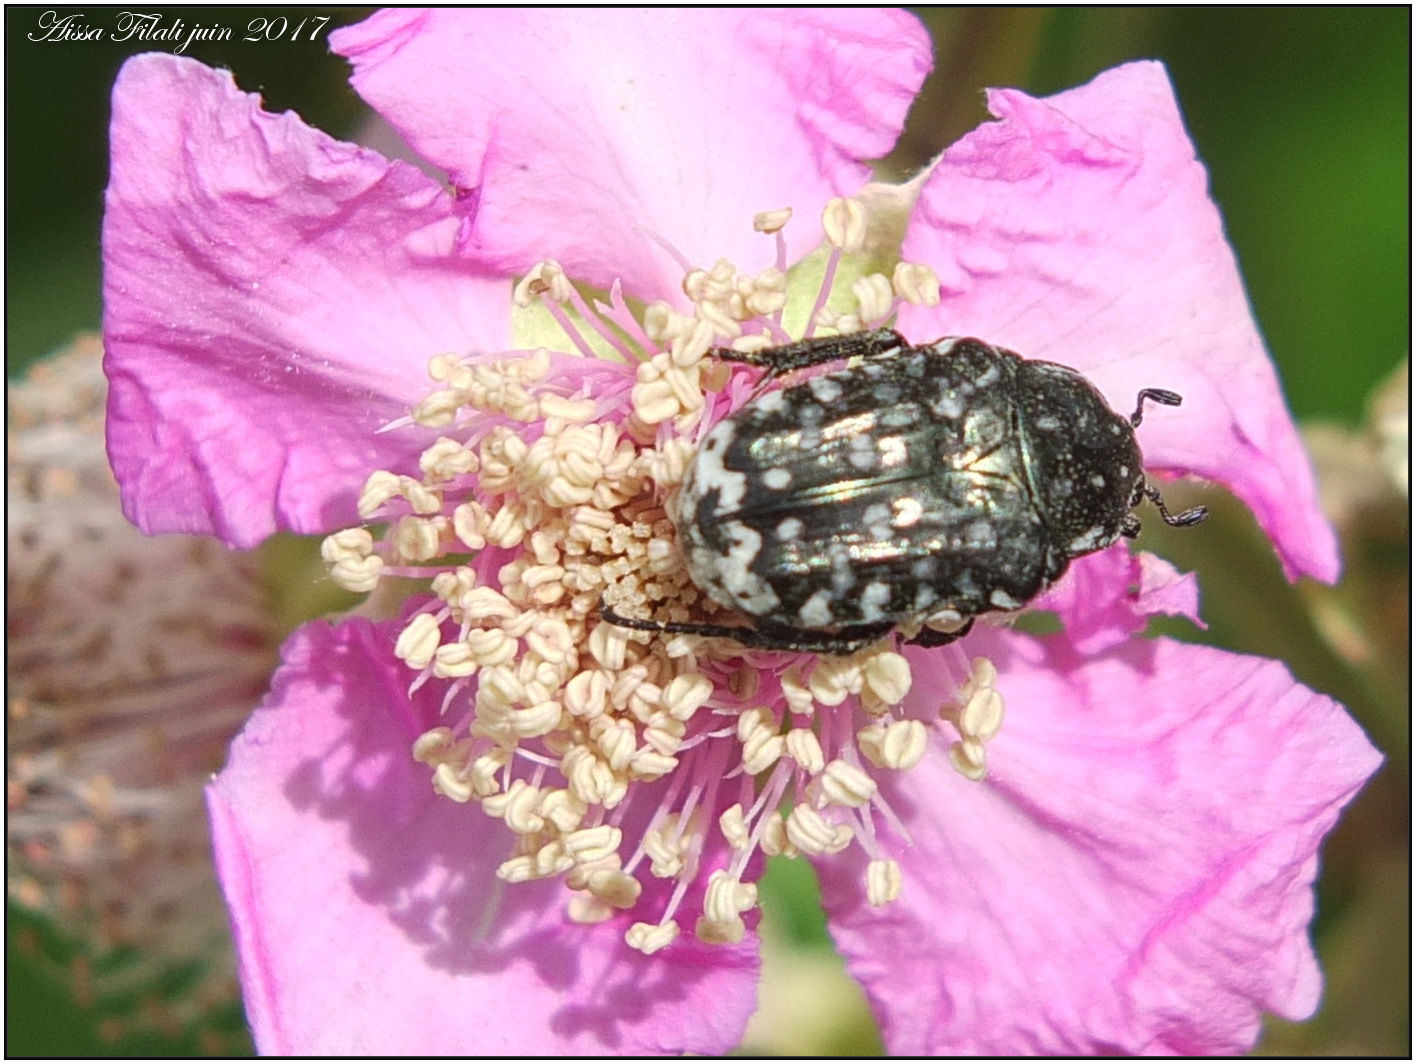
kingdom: Animalia
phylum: Arthropoda
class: Insecta
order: Coleoptera
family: Scarabaeidae
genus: Oxythyrea
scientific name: Oxythyrea funesta
